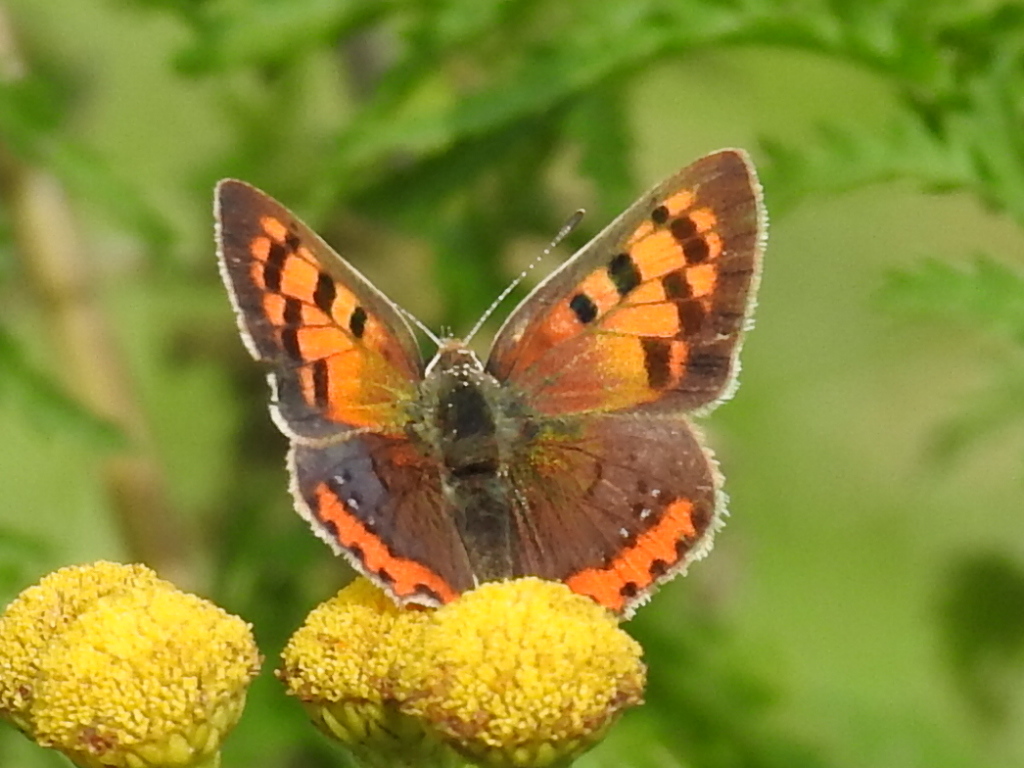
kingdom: Animalia
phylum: Arthropoda
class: Insecta
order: Lepidoptera
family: Lycaenidae
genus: Lycaena
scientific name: Lycaena phlaeas
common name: Small copper
